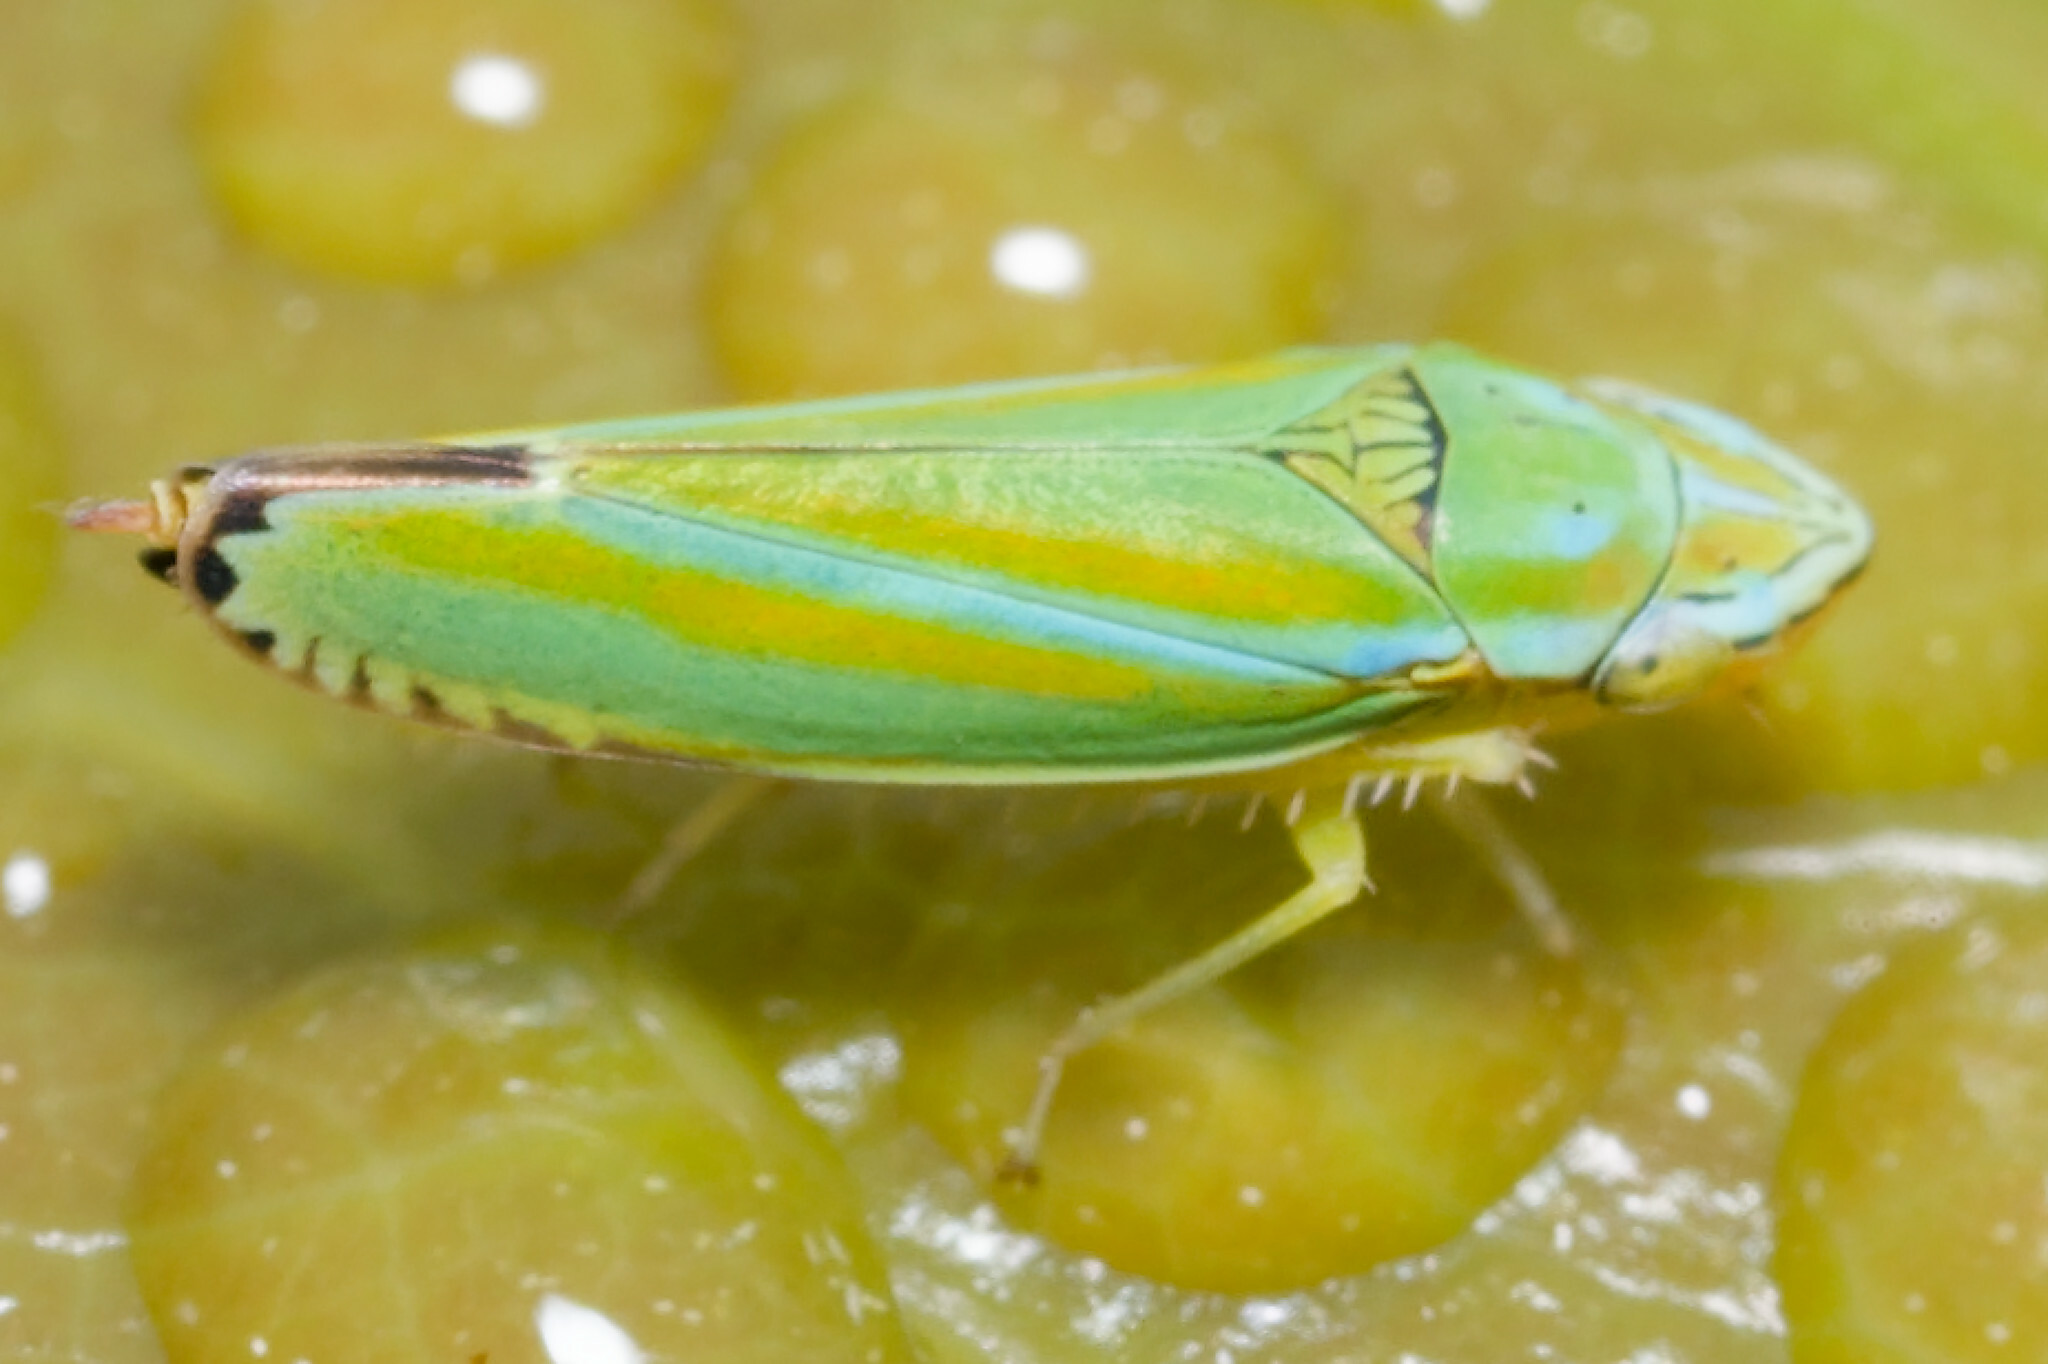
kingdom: Animalia
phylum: Arthropoda
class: Insecta
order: Hemiptera
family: Cicadellidae
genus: Graphocephala
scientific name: Graphocephala versuta
